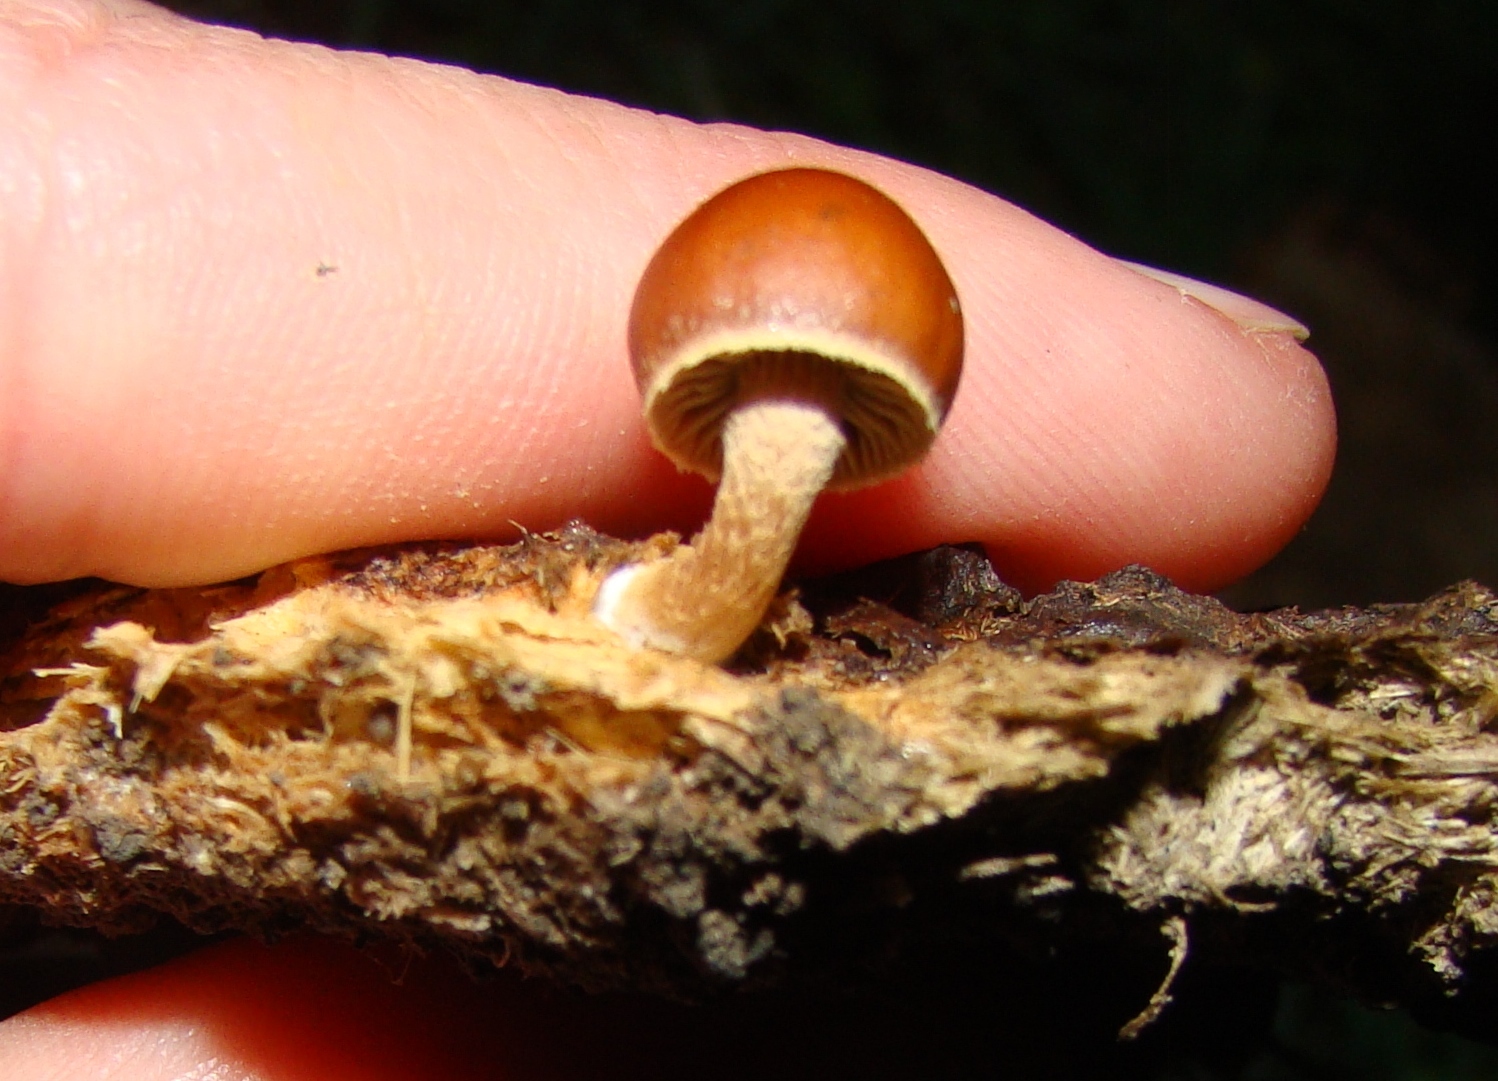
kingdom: Fungi
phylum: Basidiomycota
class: Agaricomycetes
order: Agaricales
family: Strophariaceae
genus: Deconica
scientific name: Deconica coprophila
